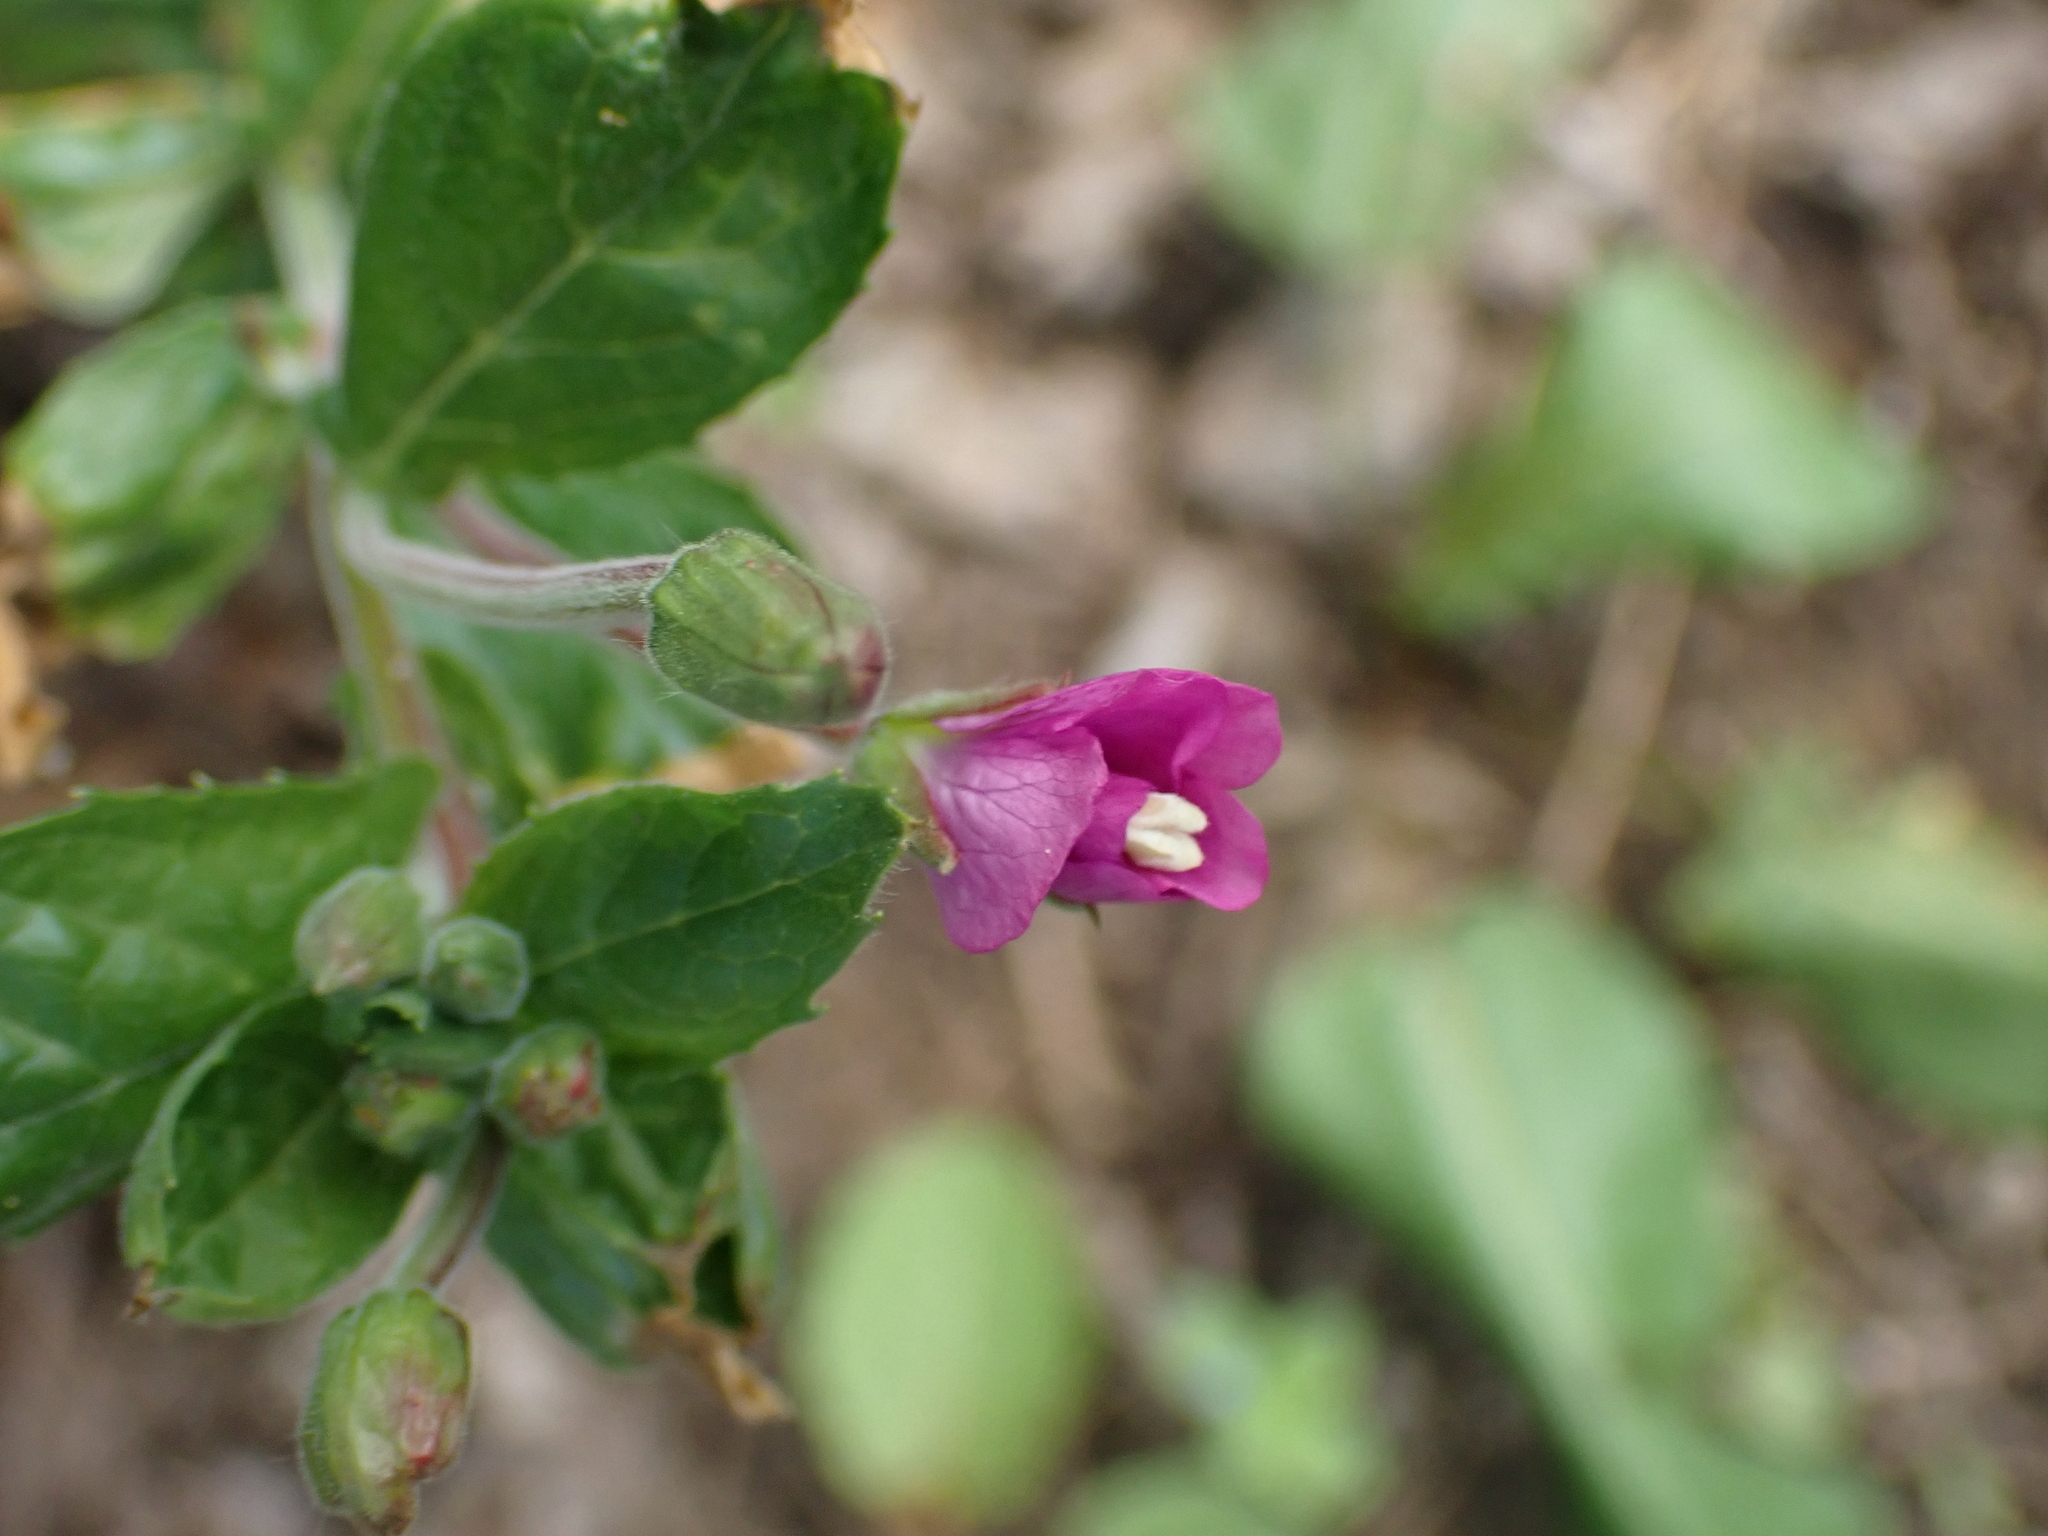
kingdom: Plantae
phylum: Tracheophyta
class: Magnoliopsida
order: Myrtales
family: Onagraceae
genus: Epilobium
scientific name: Epilobium hirsutum
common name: Great willowherb
